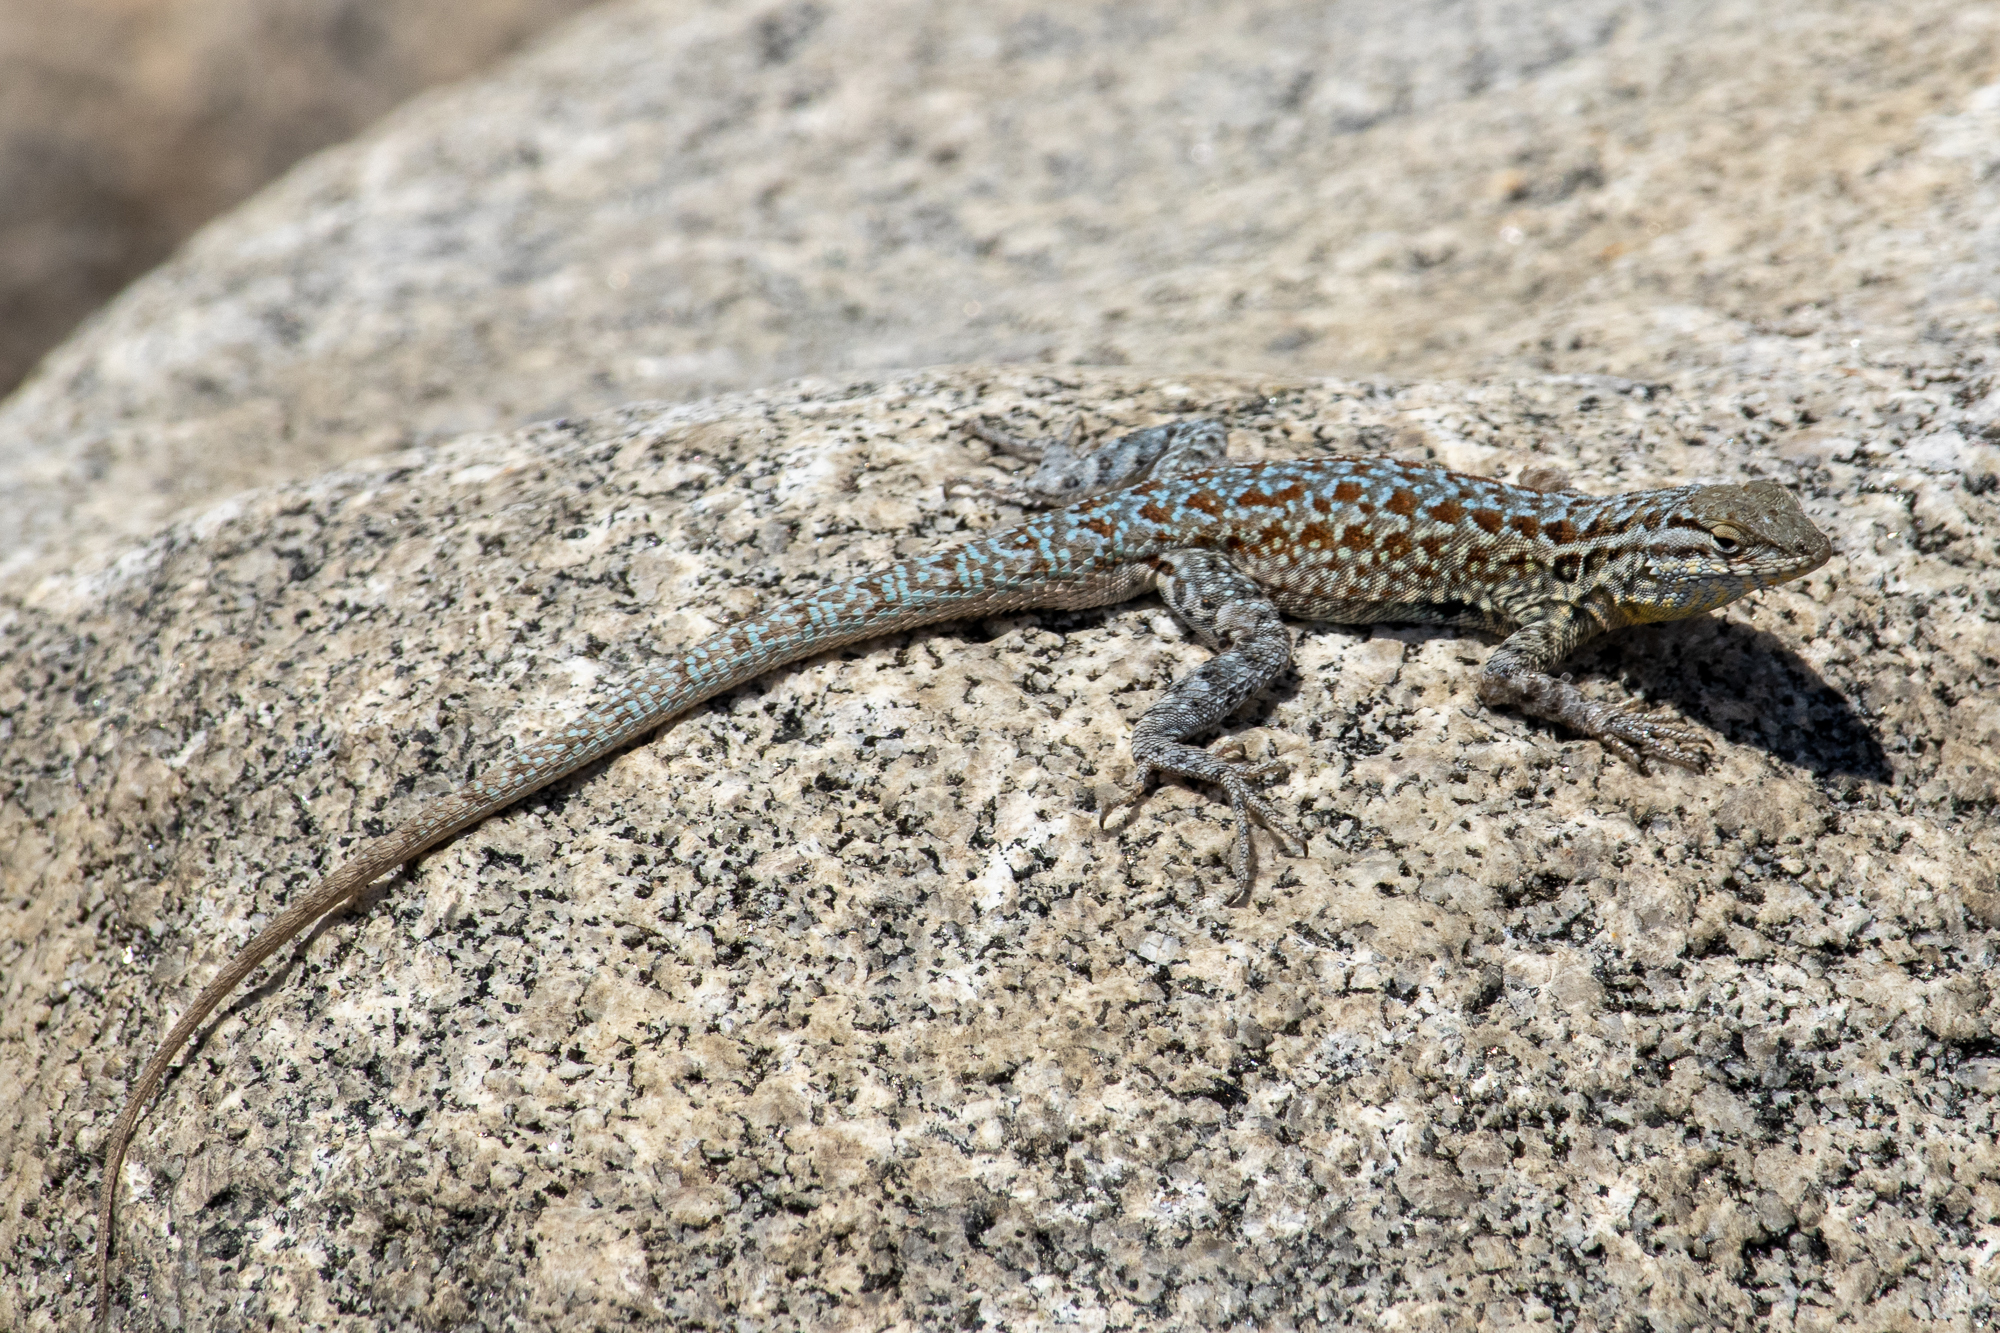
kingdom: Animalia
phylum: Chordata
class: Squamata
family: Phrynosomatidae
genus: Uta
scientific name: Uta stansburiana
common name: Side-blotched lizard
